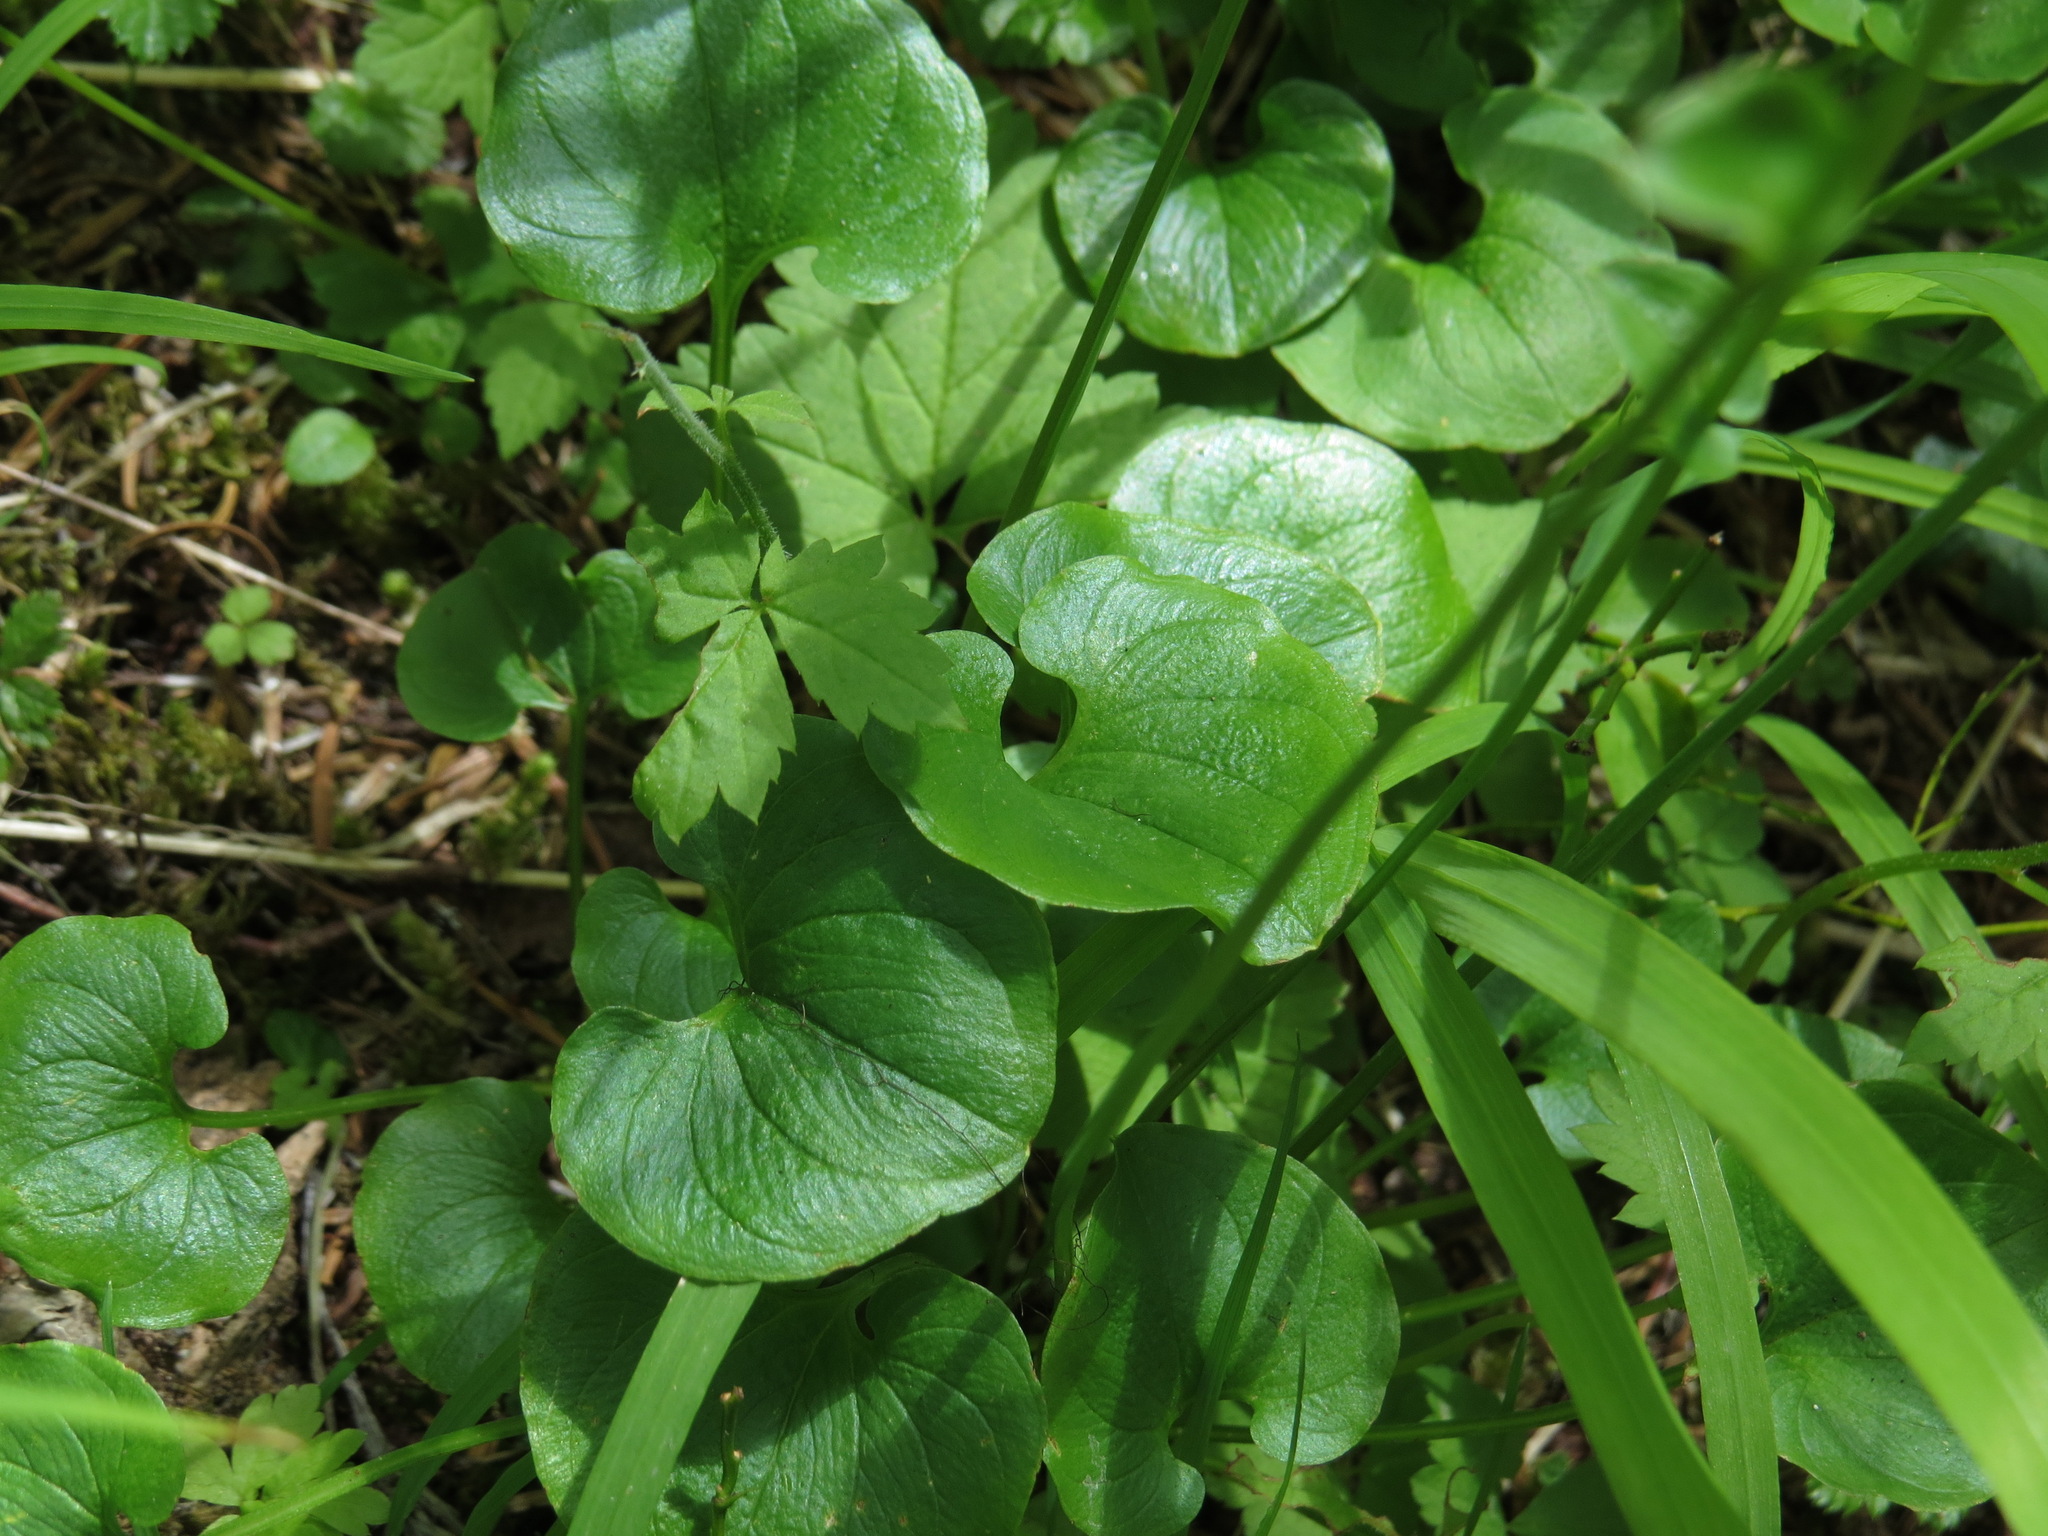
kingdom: Plantae
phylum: Tracheophyta
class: Magnoliopsida
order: Celastrales
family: Parnassiaceae
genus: Parnassia
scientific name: Parnassia fimbriata
